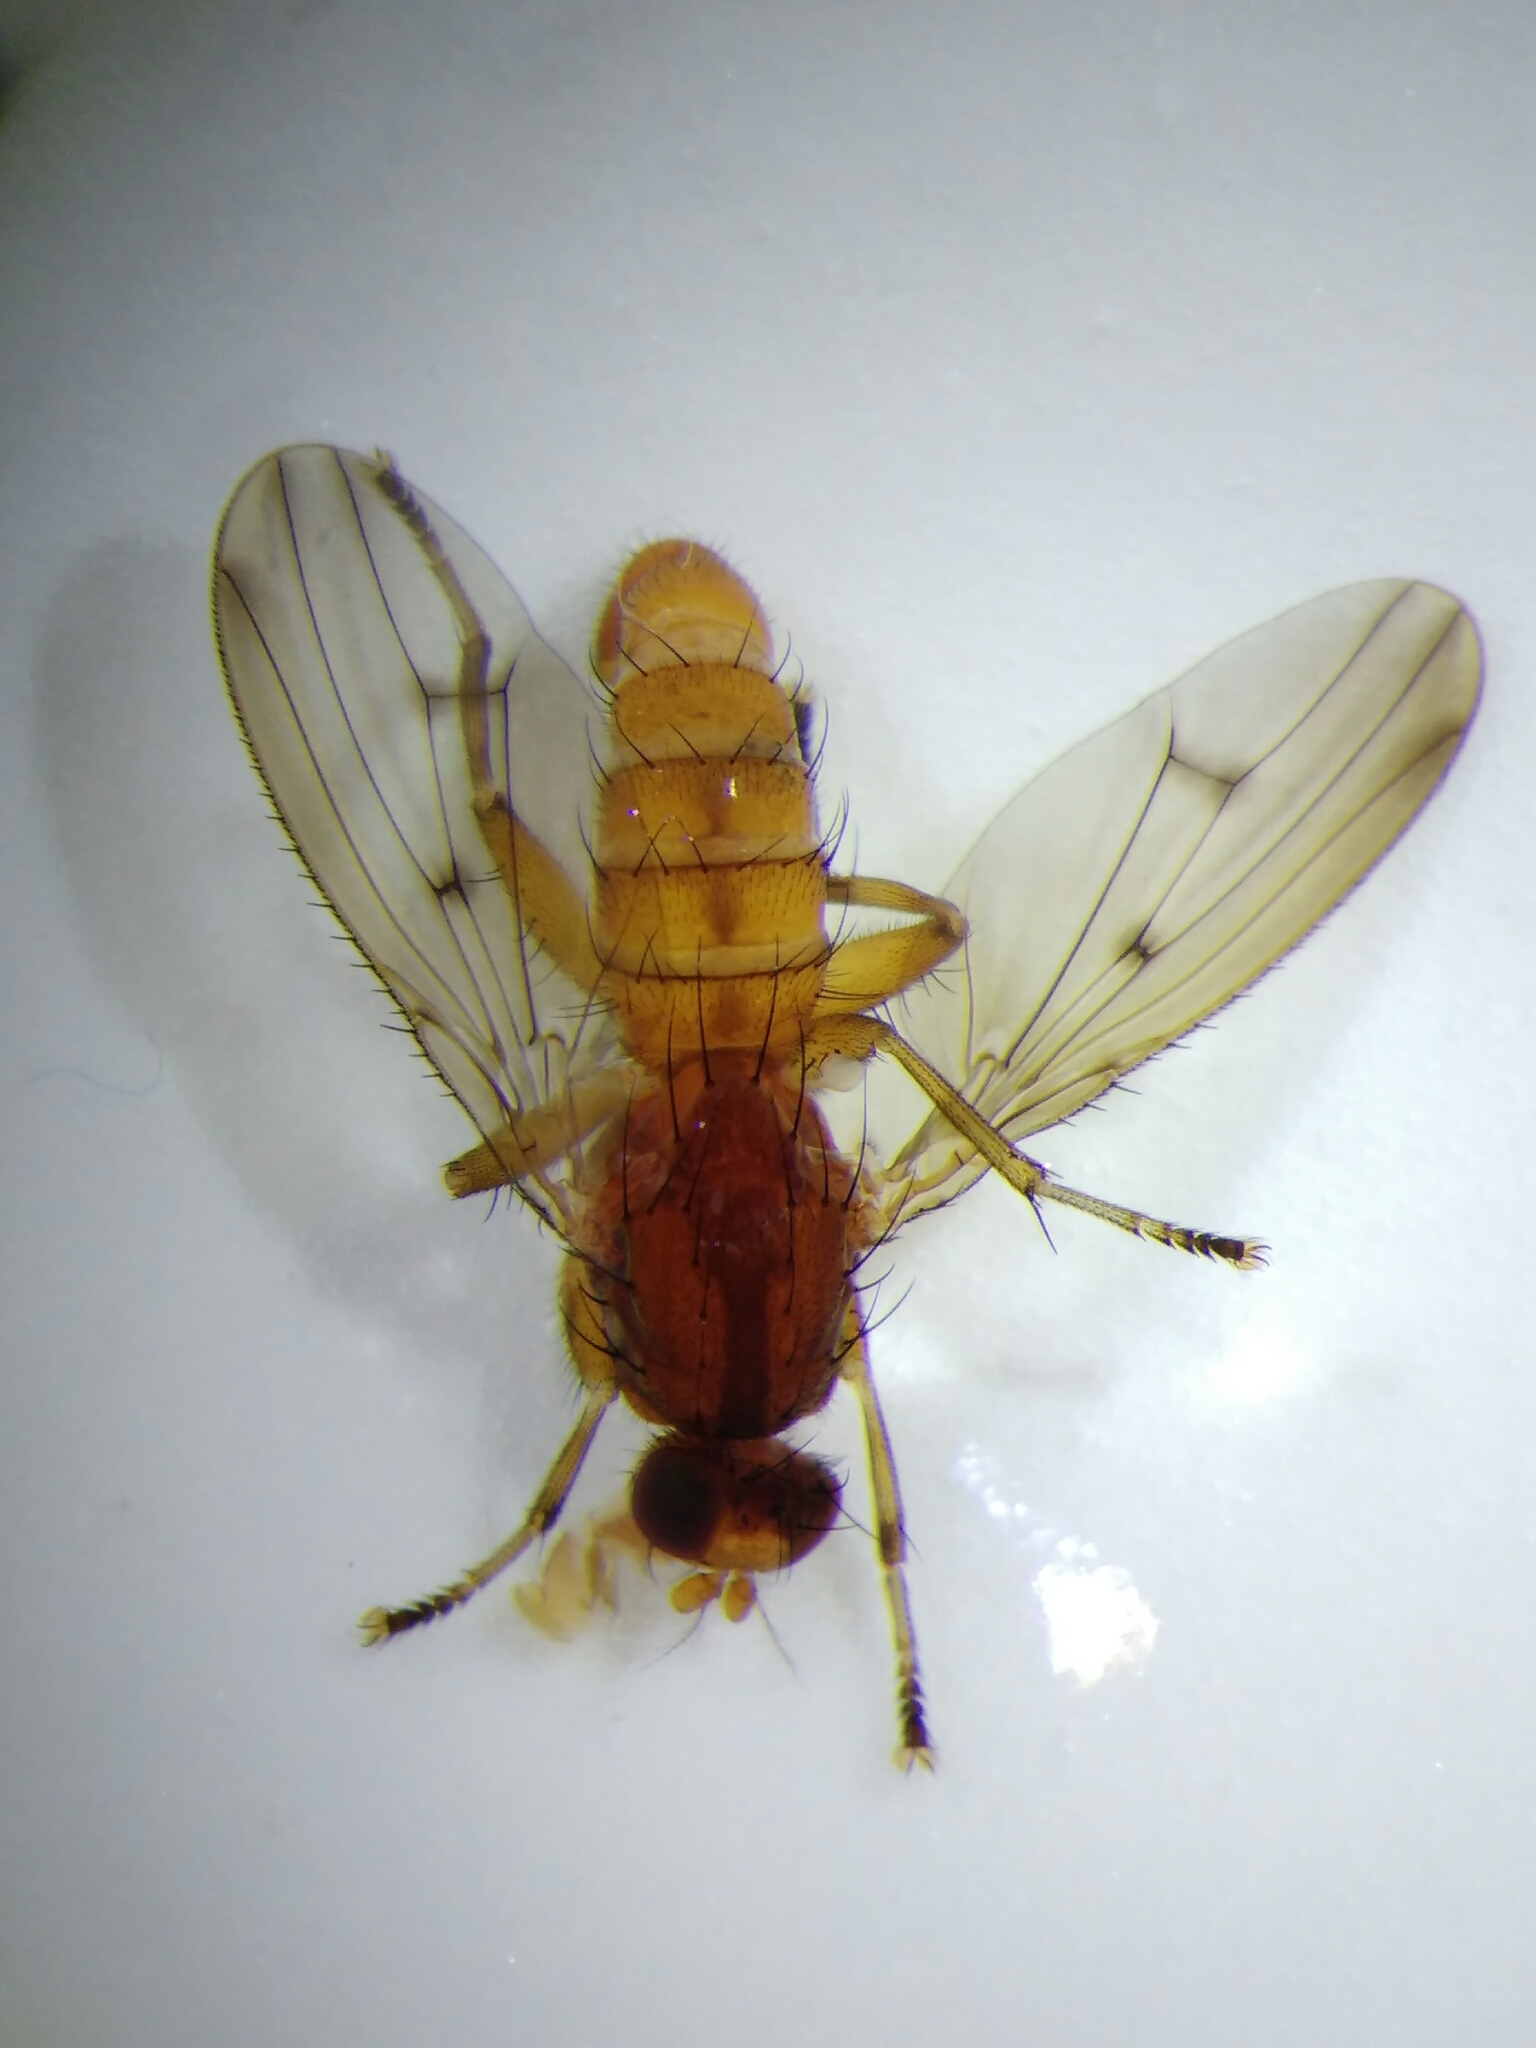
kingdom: Animalia
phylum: Arthropoda
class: Insecta
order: Diptera
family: Heleomyzidae
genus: Suillia
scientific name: Suillia affinis
